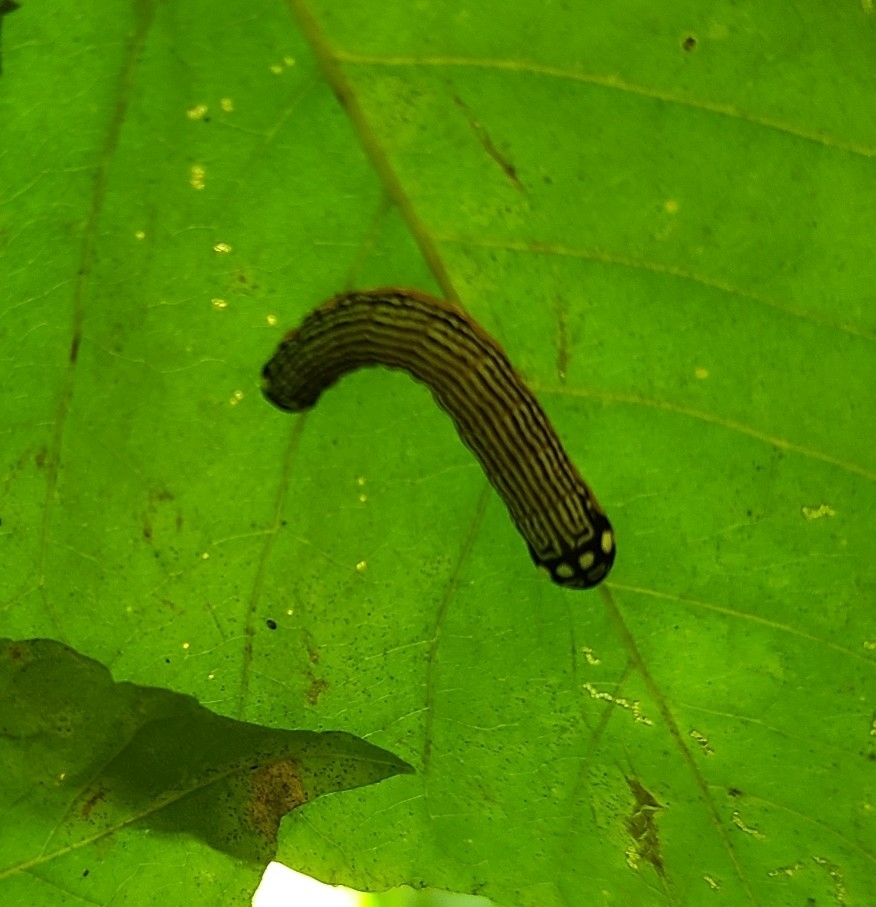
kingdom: Animalia
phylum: Arthropoda
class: Insecta
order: Lepidoptera
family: Noctuidae
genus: Phosphila
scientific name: Phosphila turbulenta
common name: Turbulent phosphila moth
